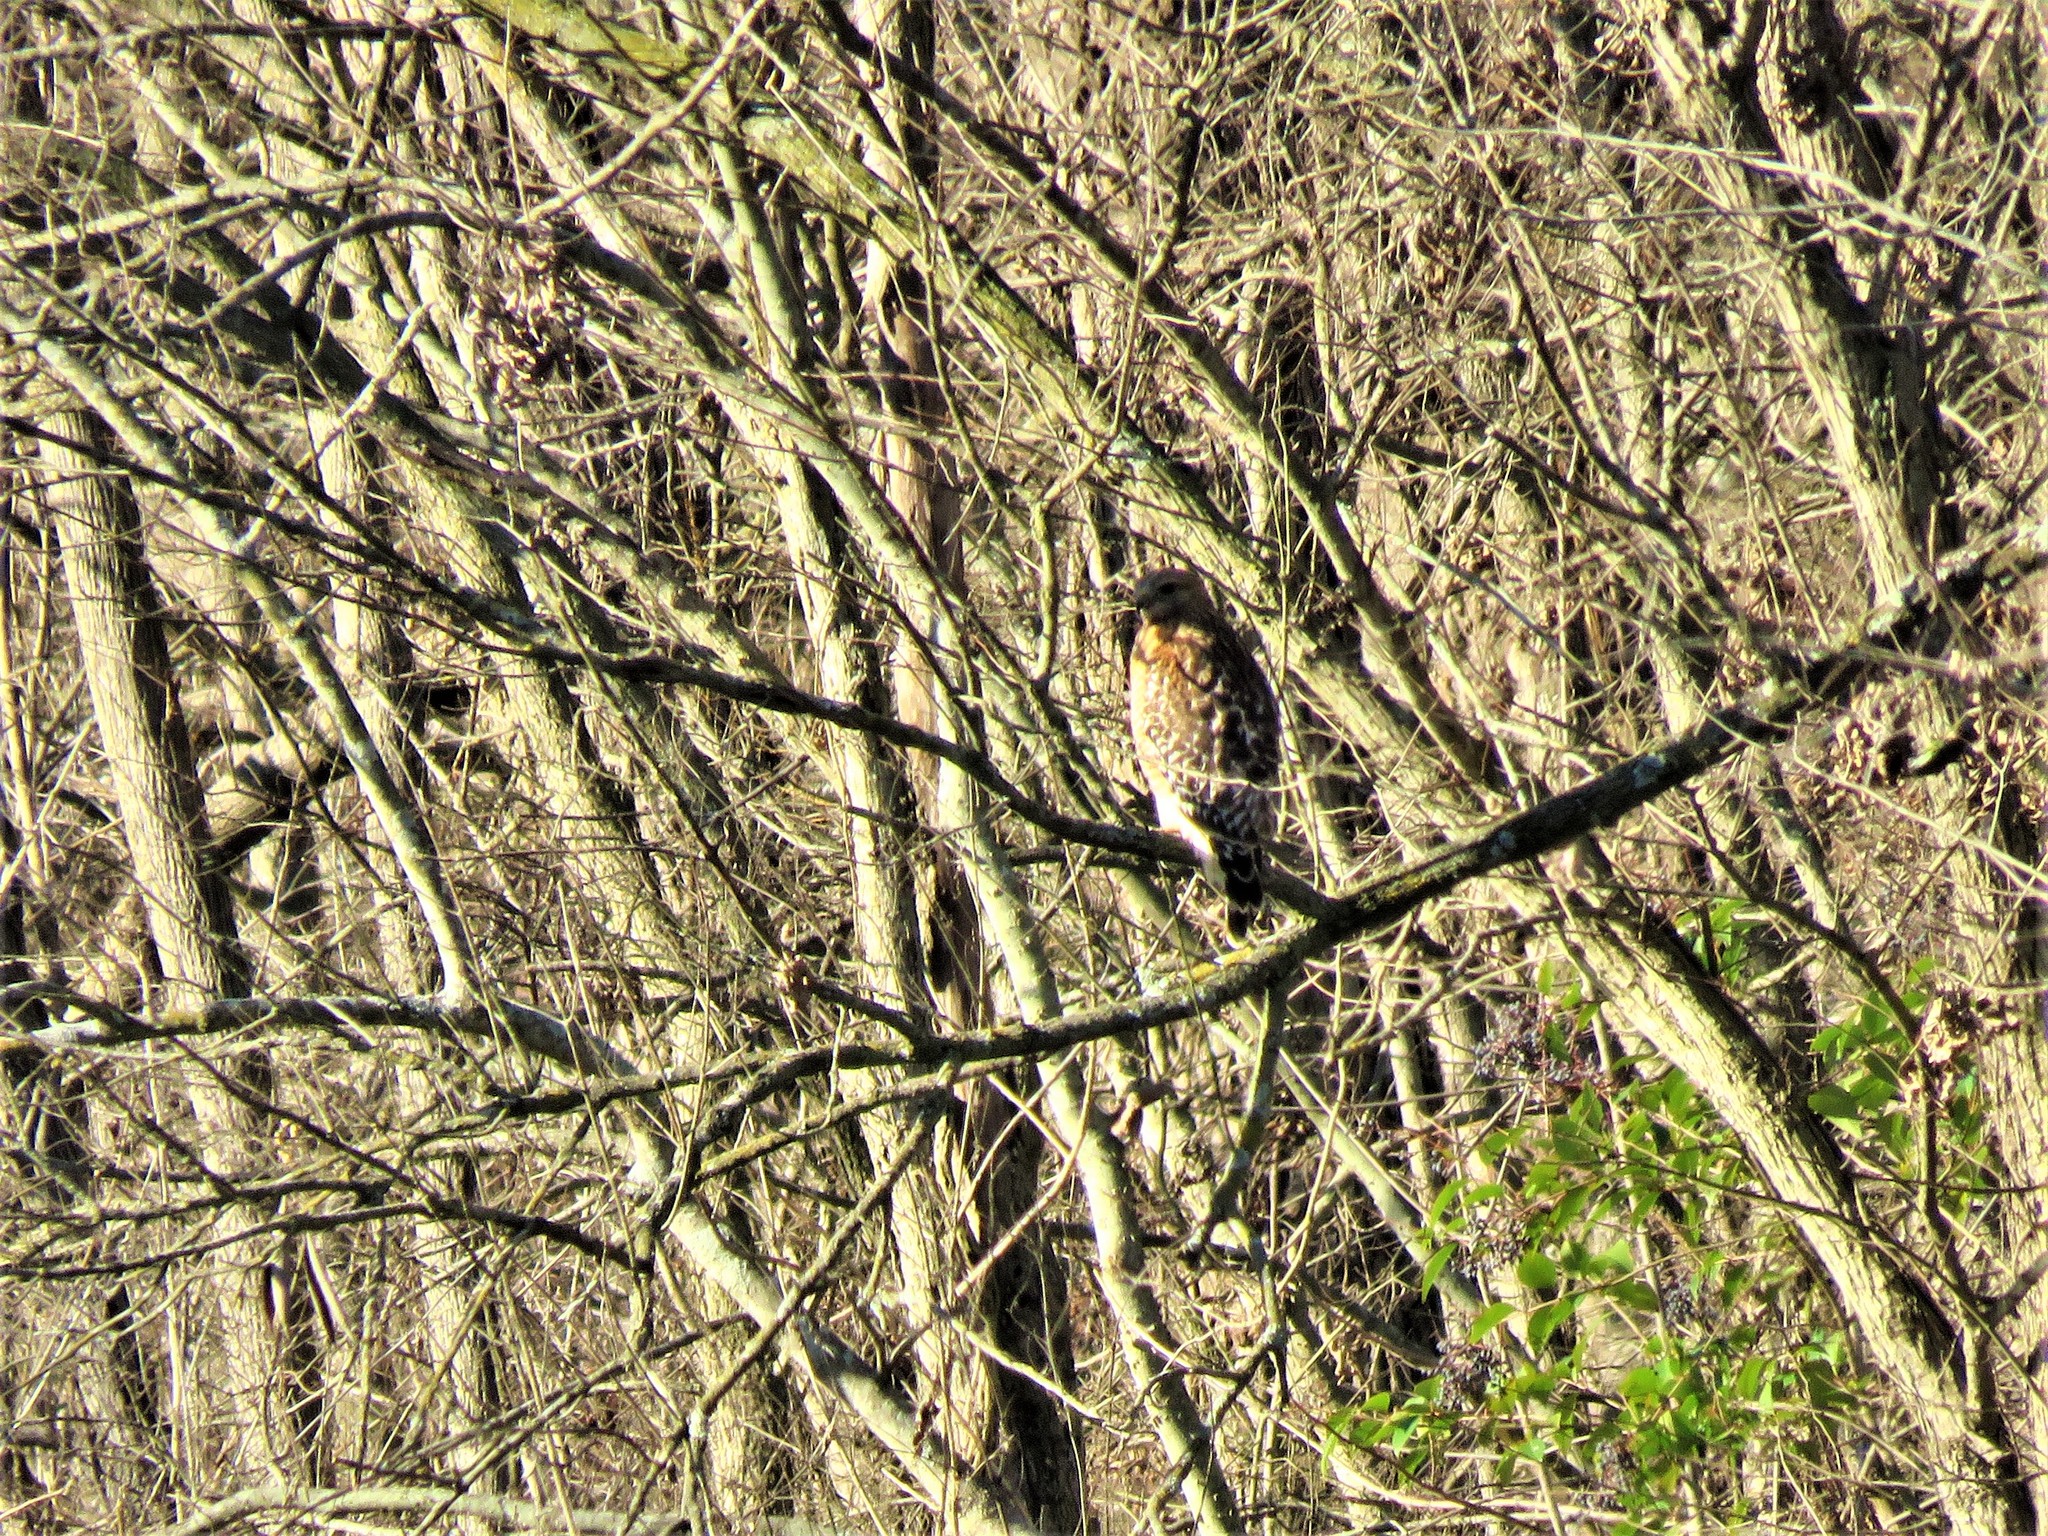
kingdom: Animalia
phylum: Chordata
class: Aves
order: Accipitriformes
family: Accipitridae
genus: Buteo
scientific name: Buteo lineatus
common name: Red-shouldered hawk
